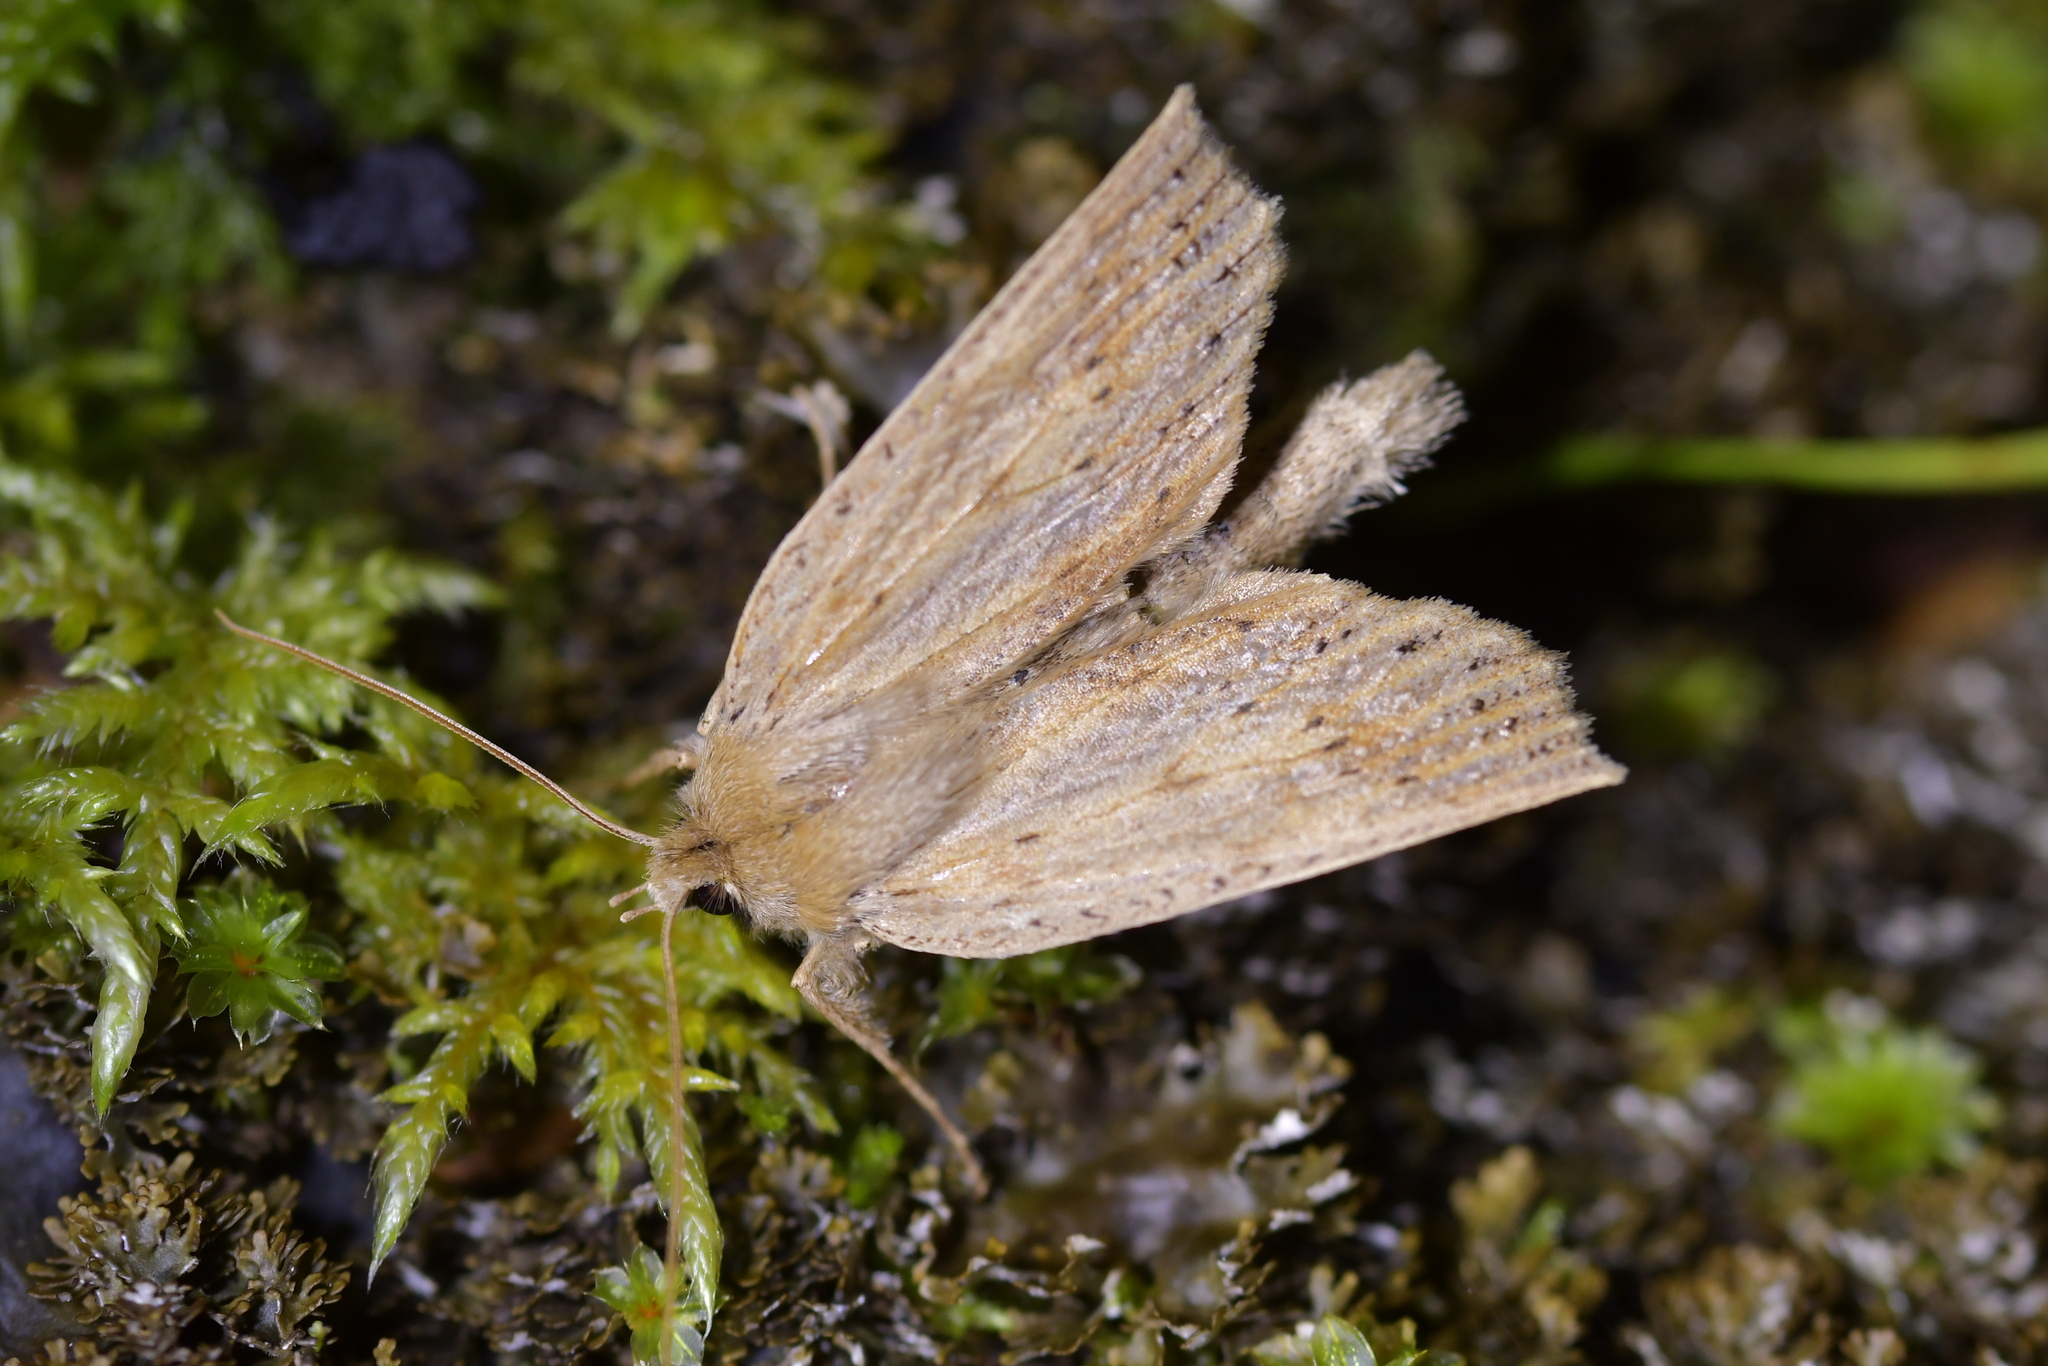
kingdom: Animalia
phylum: Arthropoda
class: Insecta
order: Lepidoptera
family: Geometridae
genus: Declana
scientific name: Declana leptomera
